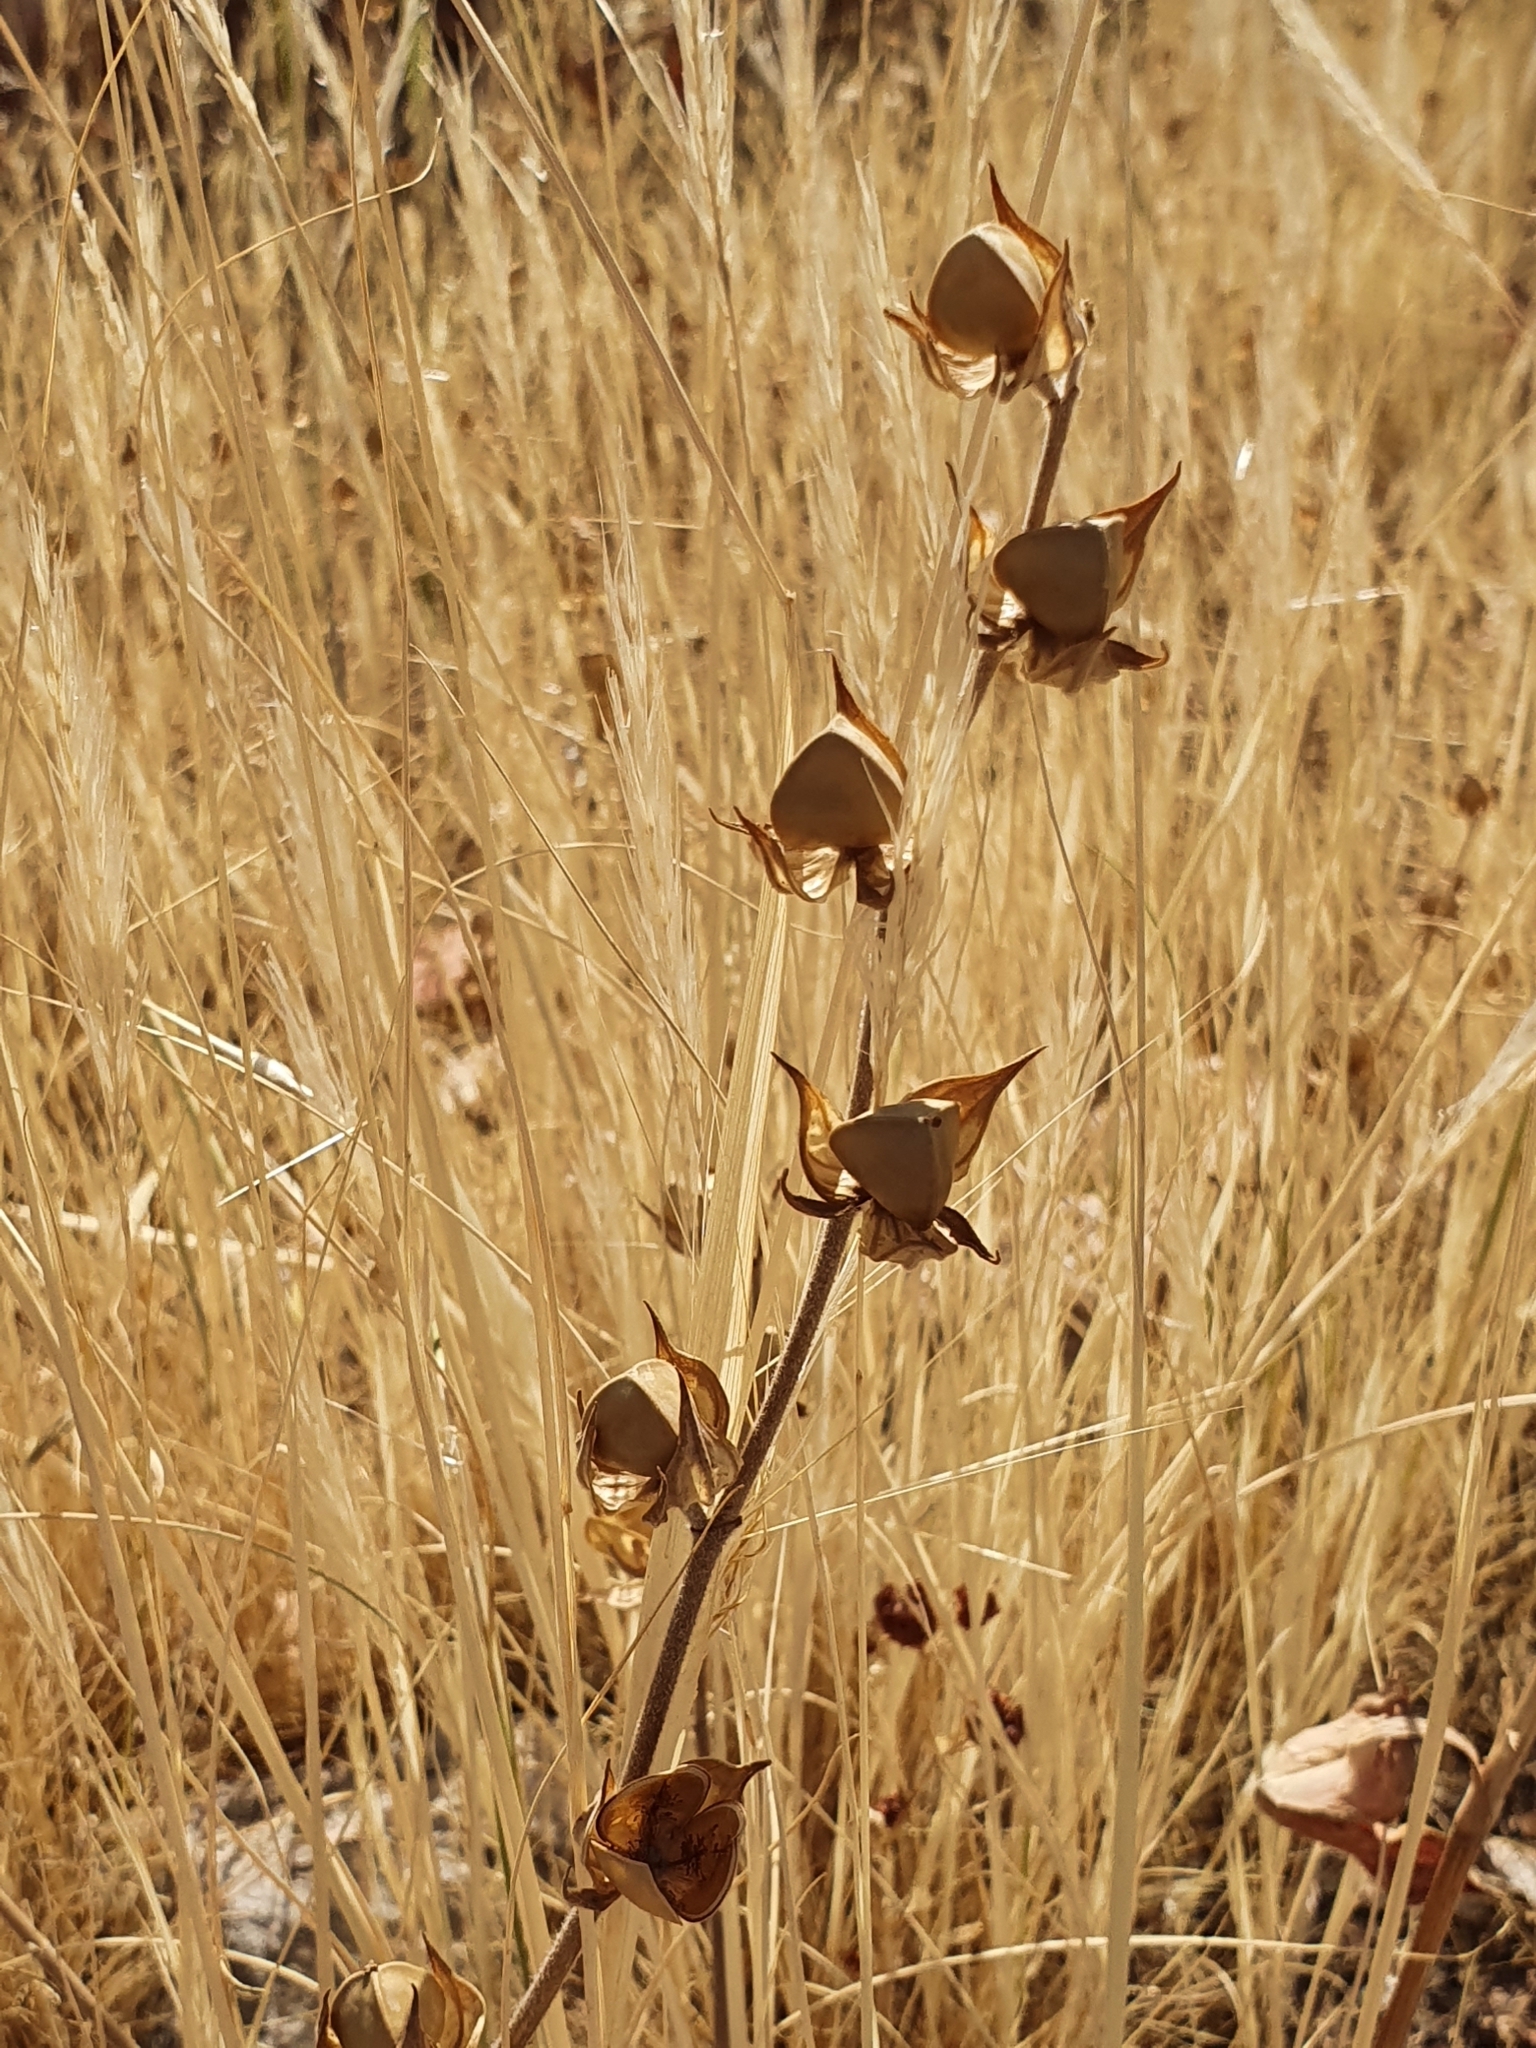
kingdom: Plantae
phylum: Tracheophyta
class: Magnoliopsida
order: Malvales
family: Cistaceae
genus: Helianthemum
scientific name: Helianthemum ledifolium
